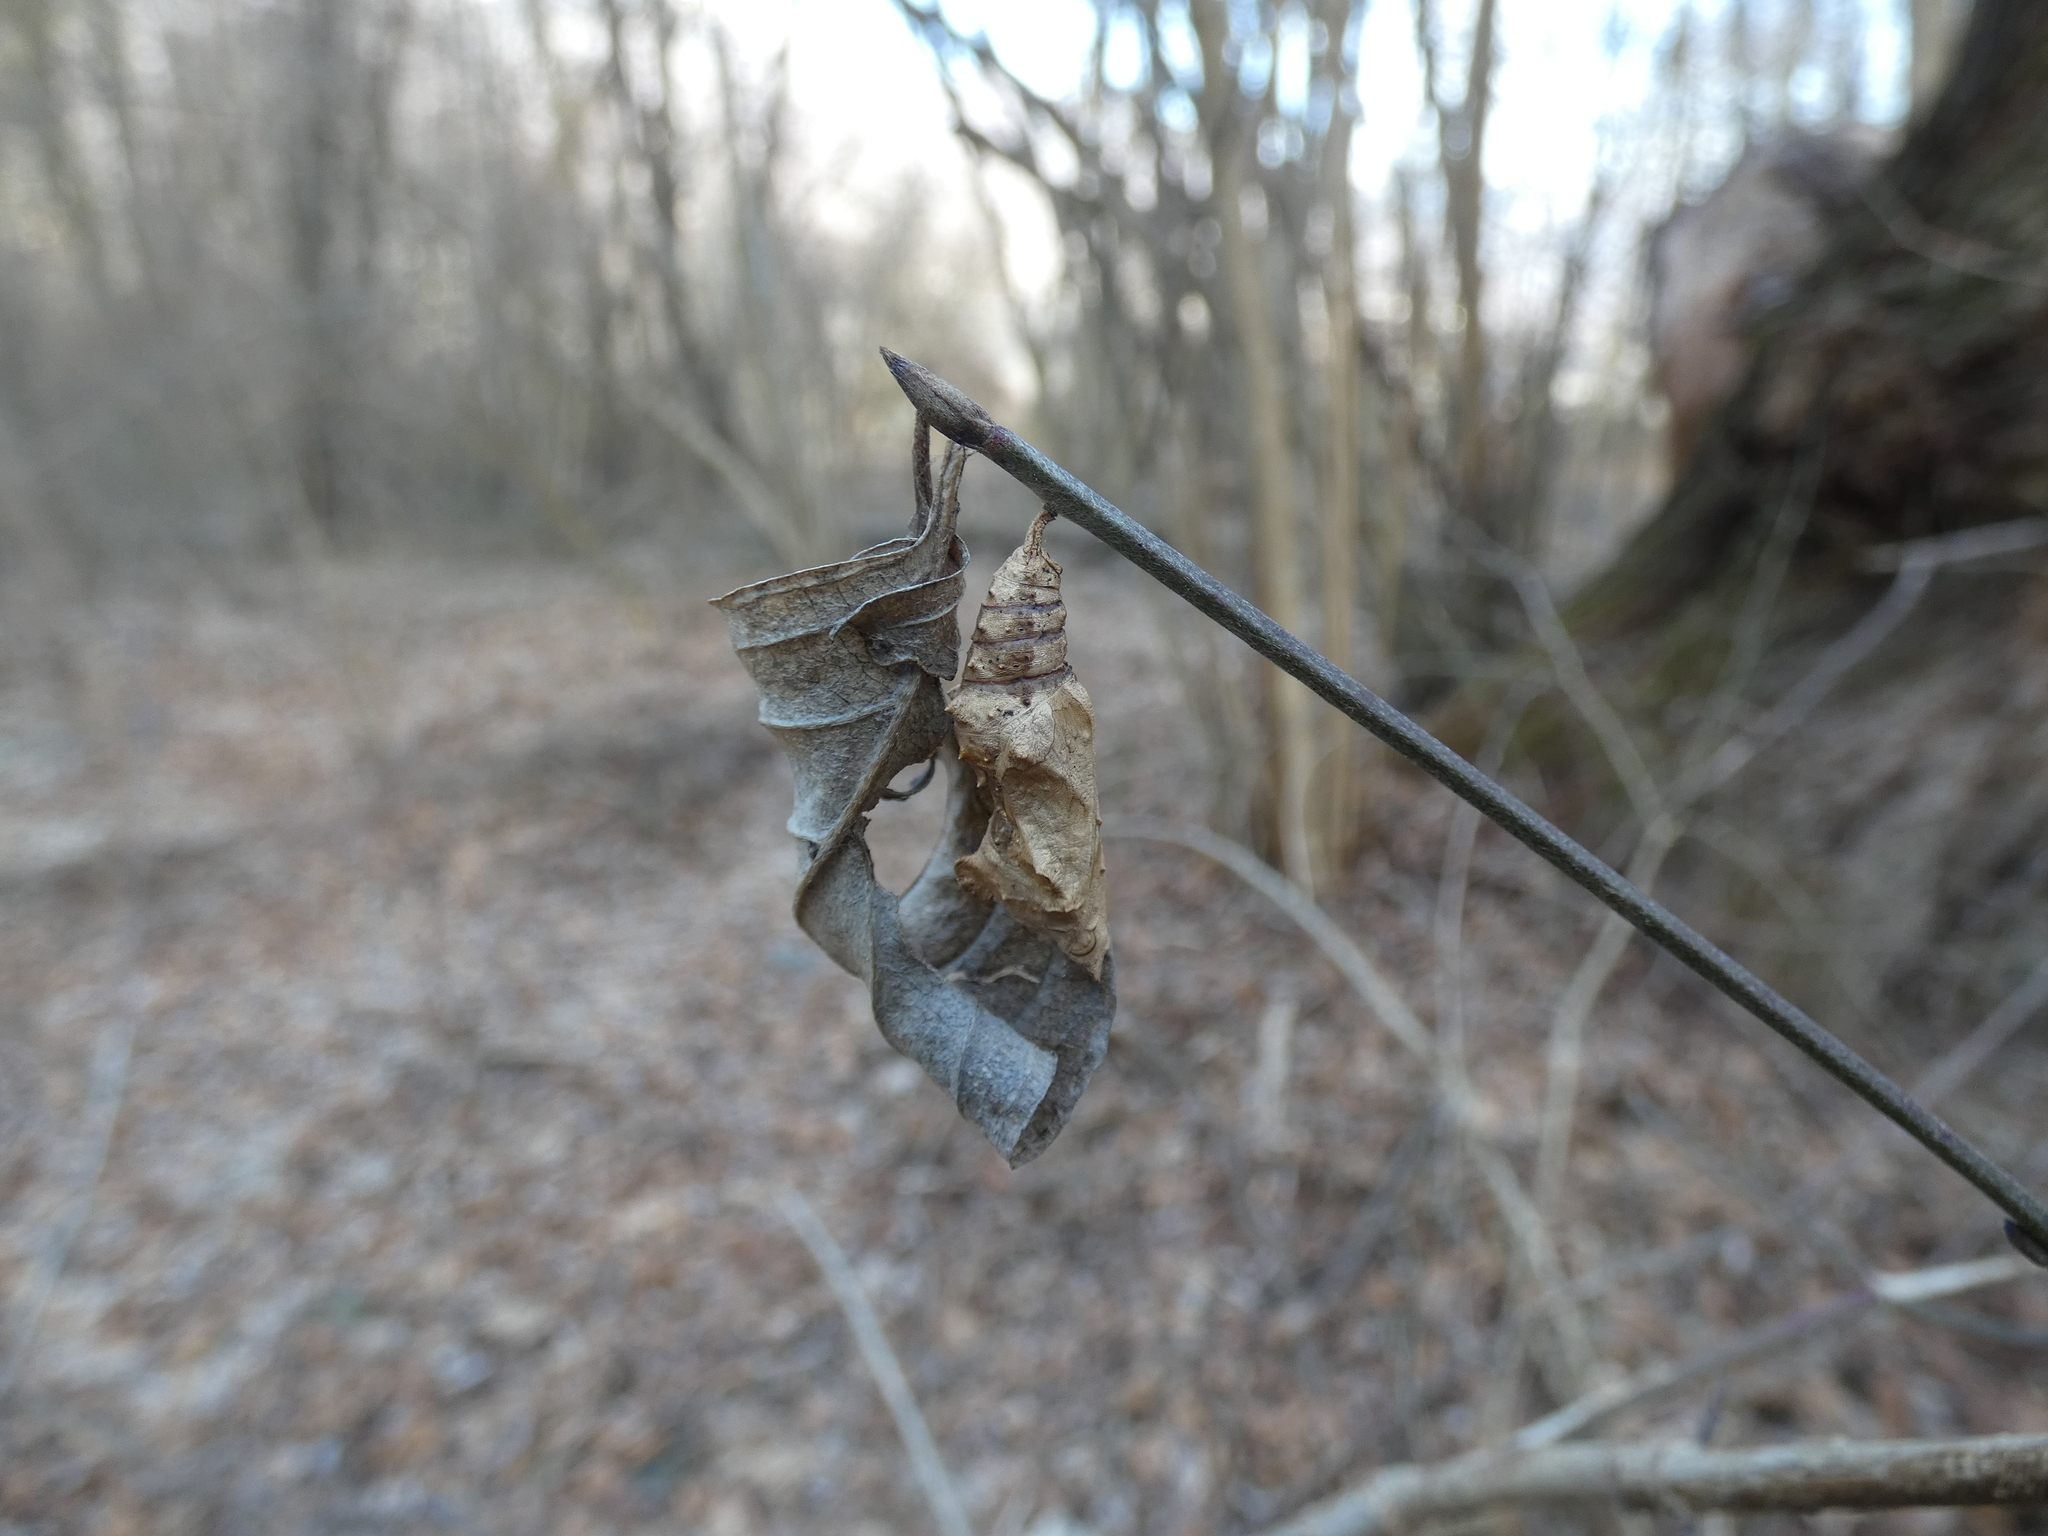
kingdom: Animalia
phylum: Arthropoda
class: Insecta
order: Lepidoptera
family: Nymphalidae
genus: Polygonia
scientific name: Polygonia c-album
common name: Comma
